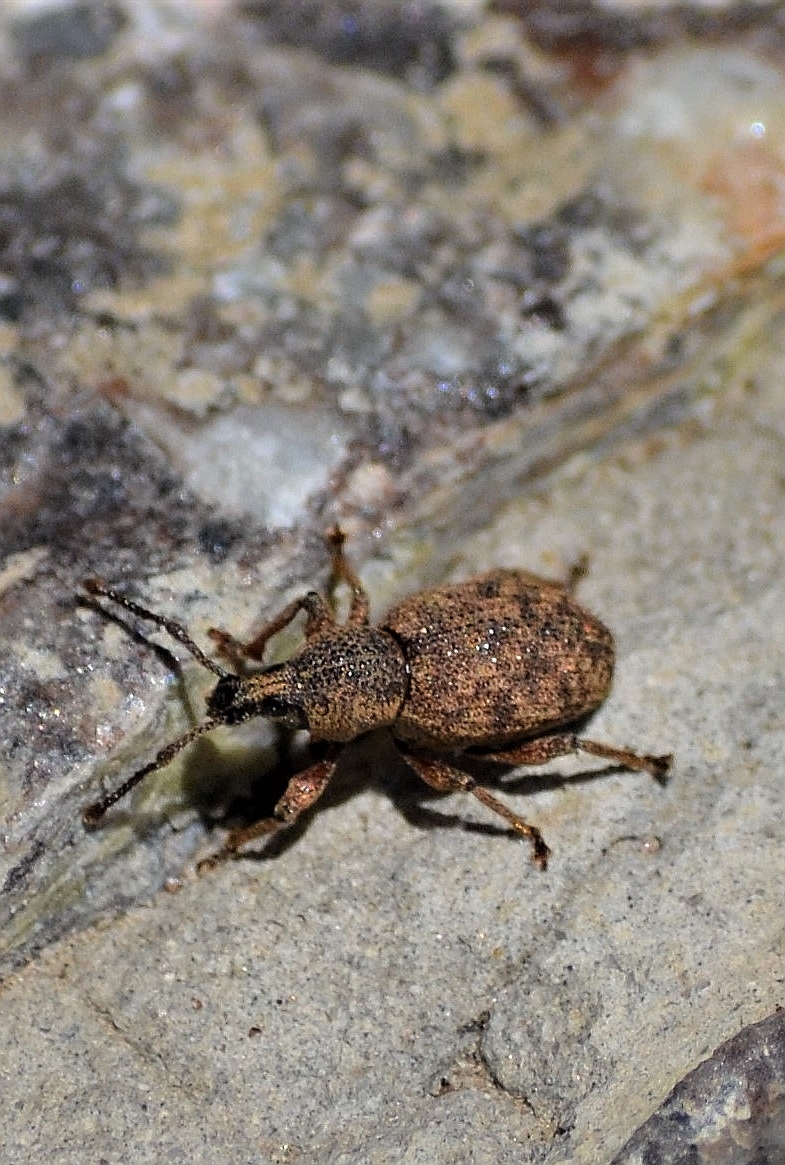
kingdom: Animalia
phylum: Arthropoda
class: Insecta
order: Coleoptera
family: Curculionidae
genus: Otiorhynchus
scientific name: Otiorhynchus singularis
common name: Clay-coloured weevil
